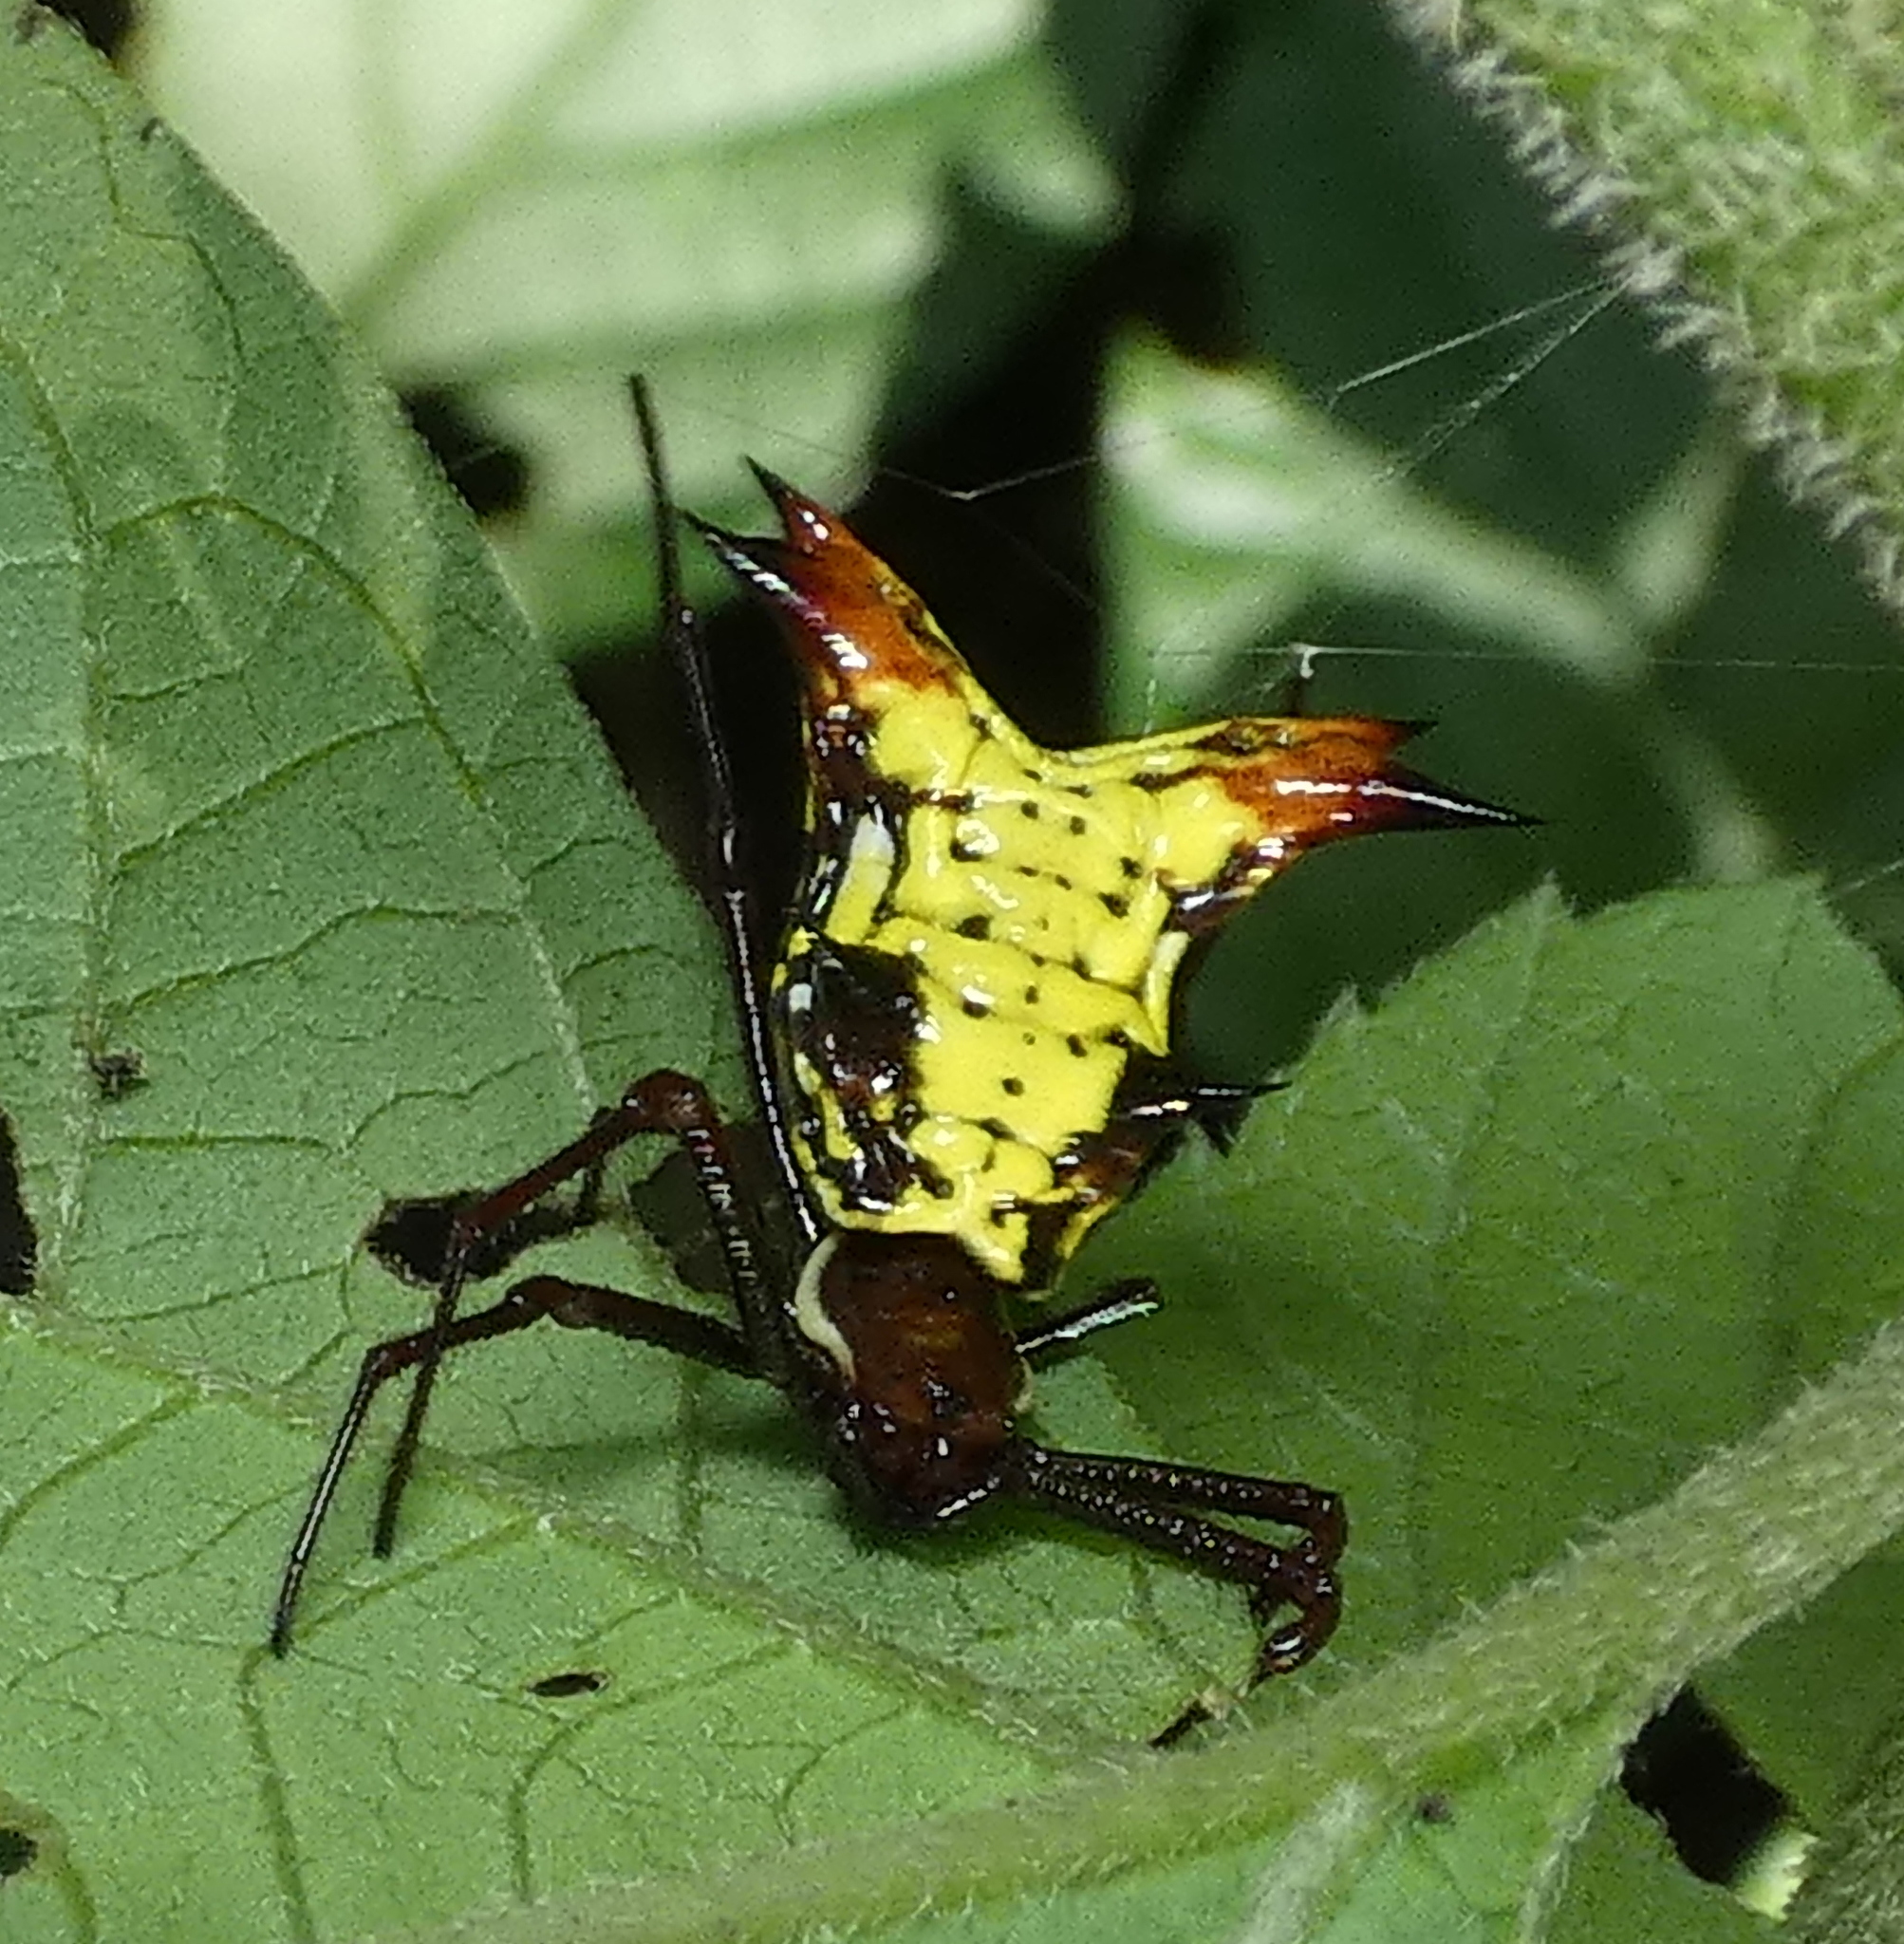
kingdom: Animalia
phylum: Arthropoda
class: Arachnida
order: Araneae
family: Araneidae
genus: Micrathena
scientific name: Micrathena fissispina
